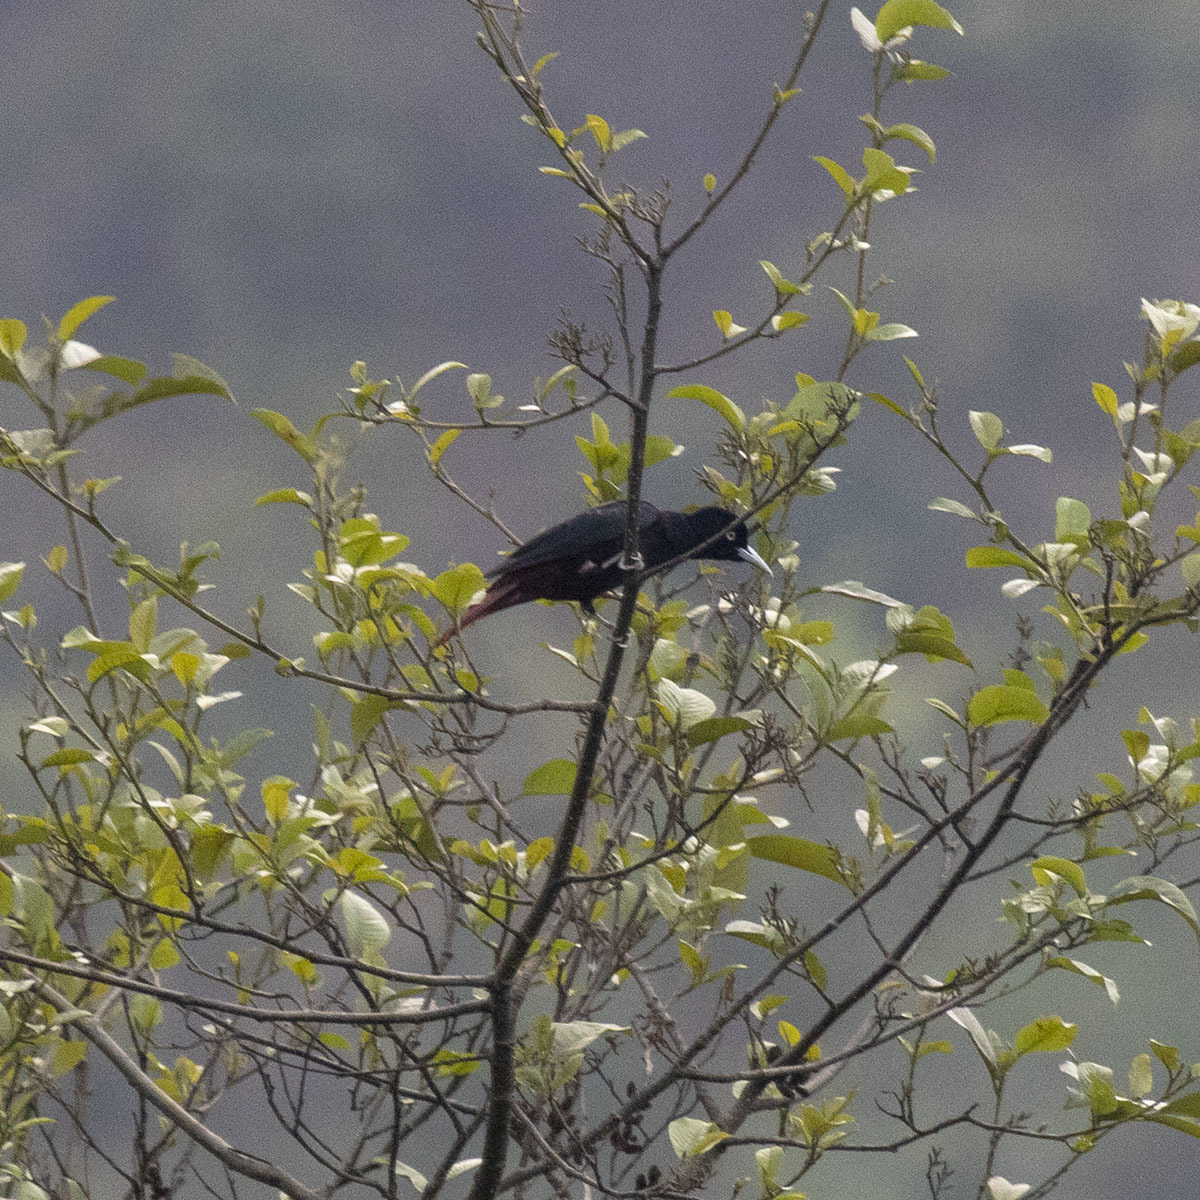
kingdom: Animalia
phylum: Chordata
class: Aves
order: Passeriformes
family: Oriolidae
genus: Oriolus
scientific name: Oriolus traillii
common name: Maroon oriole
